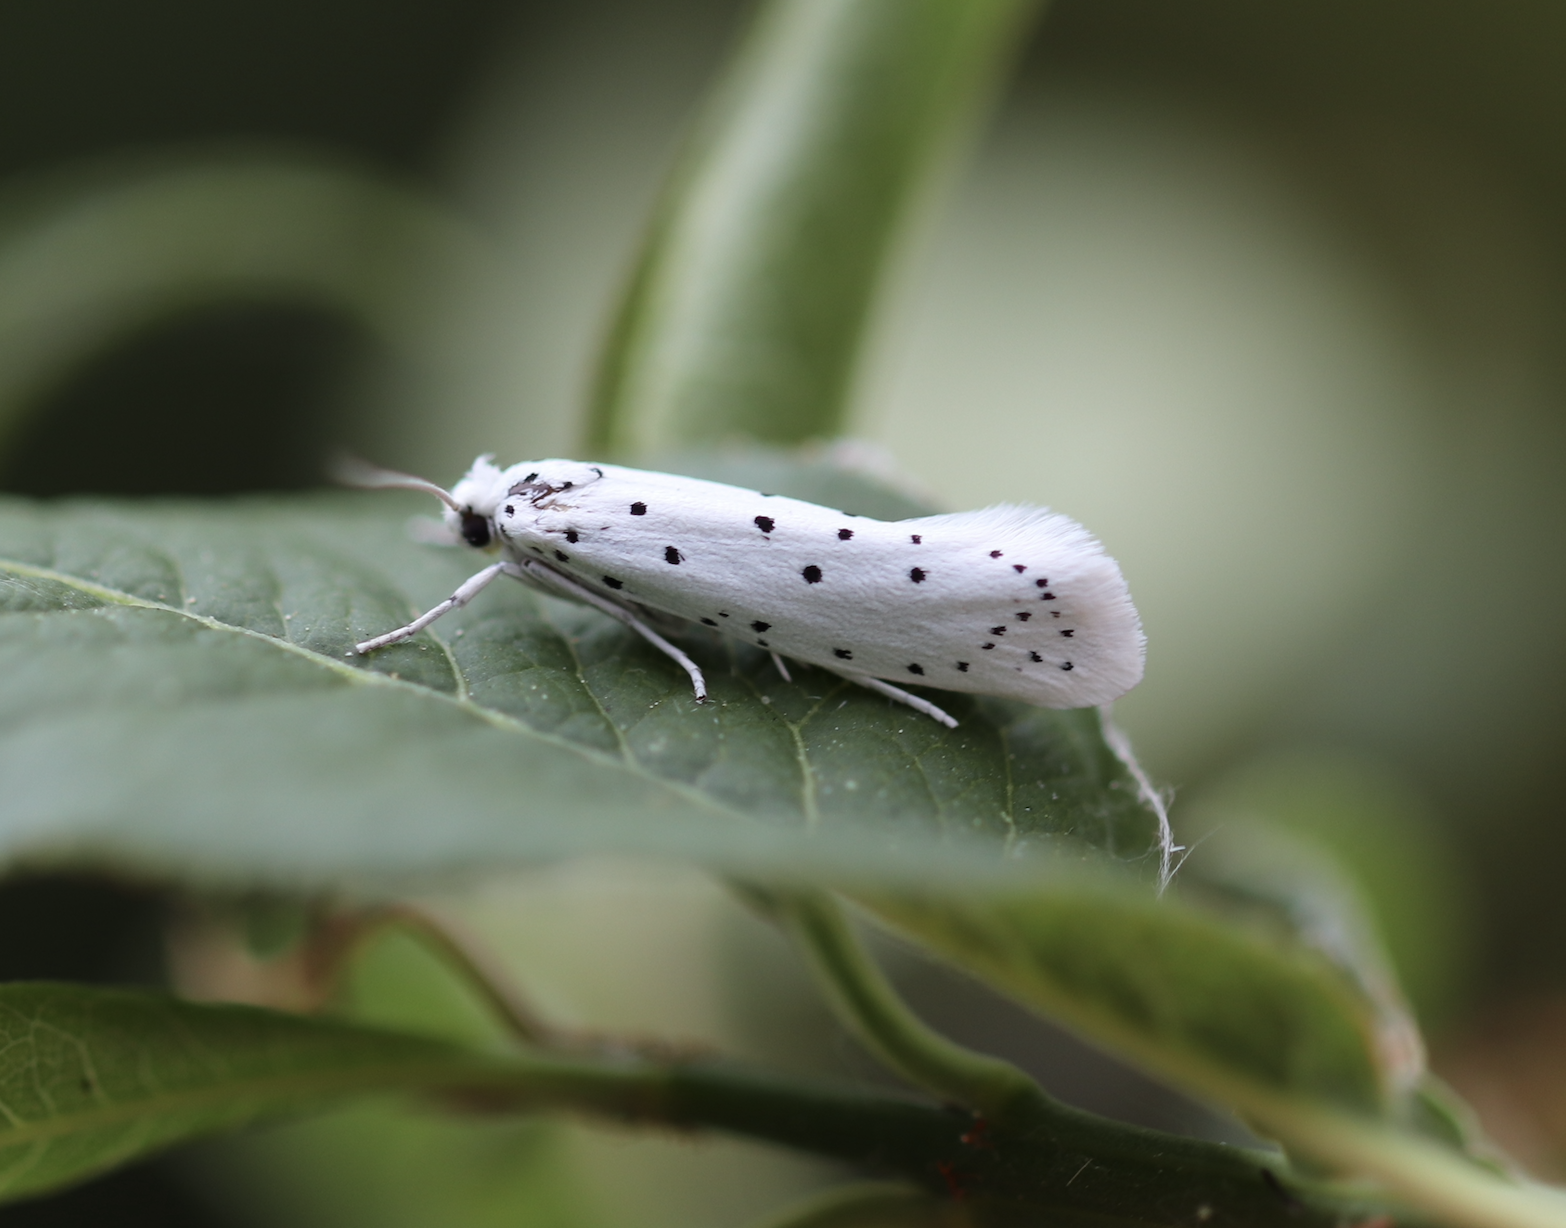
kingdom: Animalia
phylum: Arthropoda
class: Insecta
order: Lepidoptera
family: Yponomeutidae
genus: Yponomeuta
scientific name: Yponomeuta cagnagellus
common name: Spindle ermine
